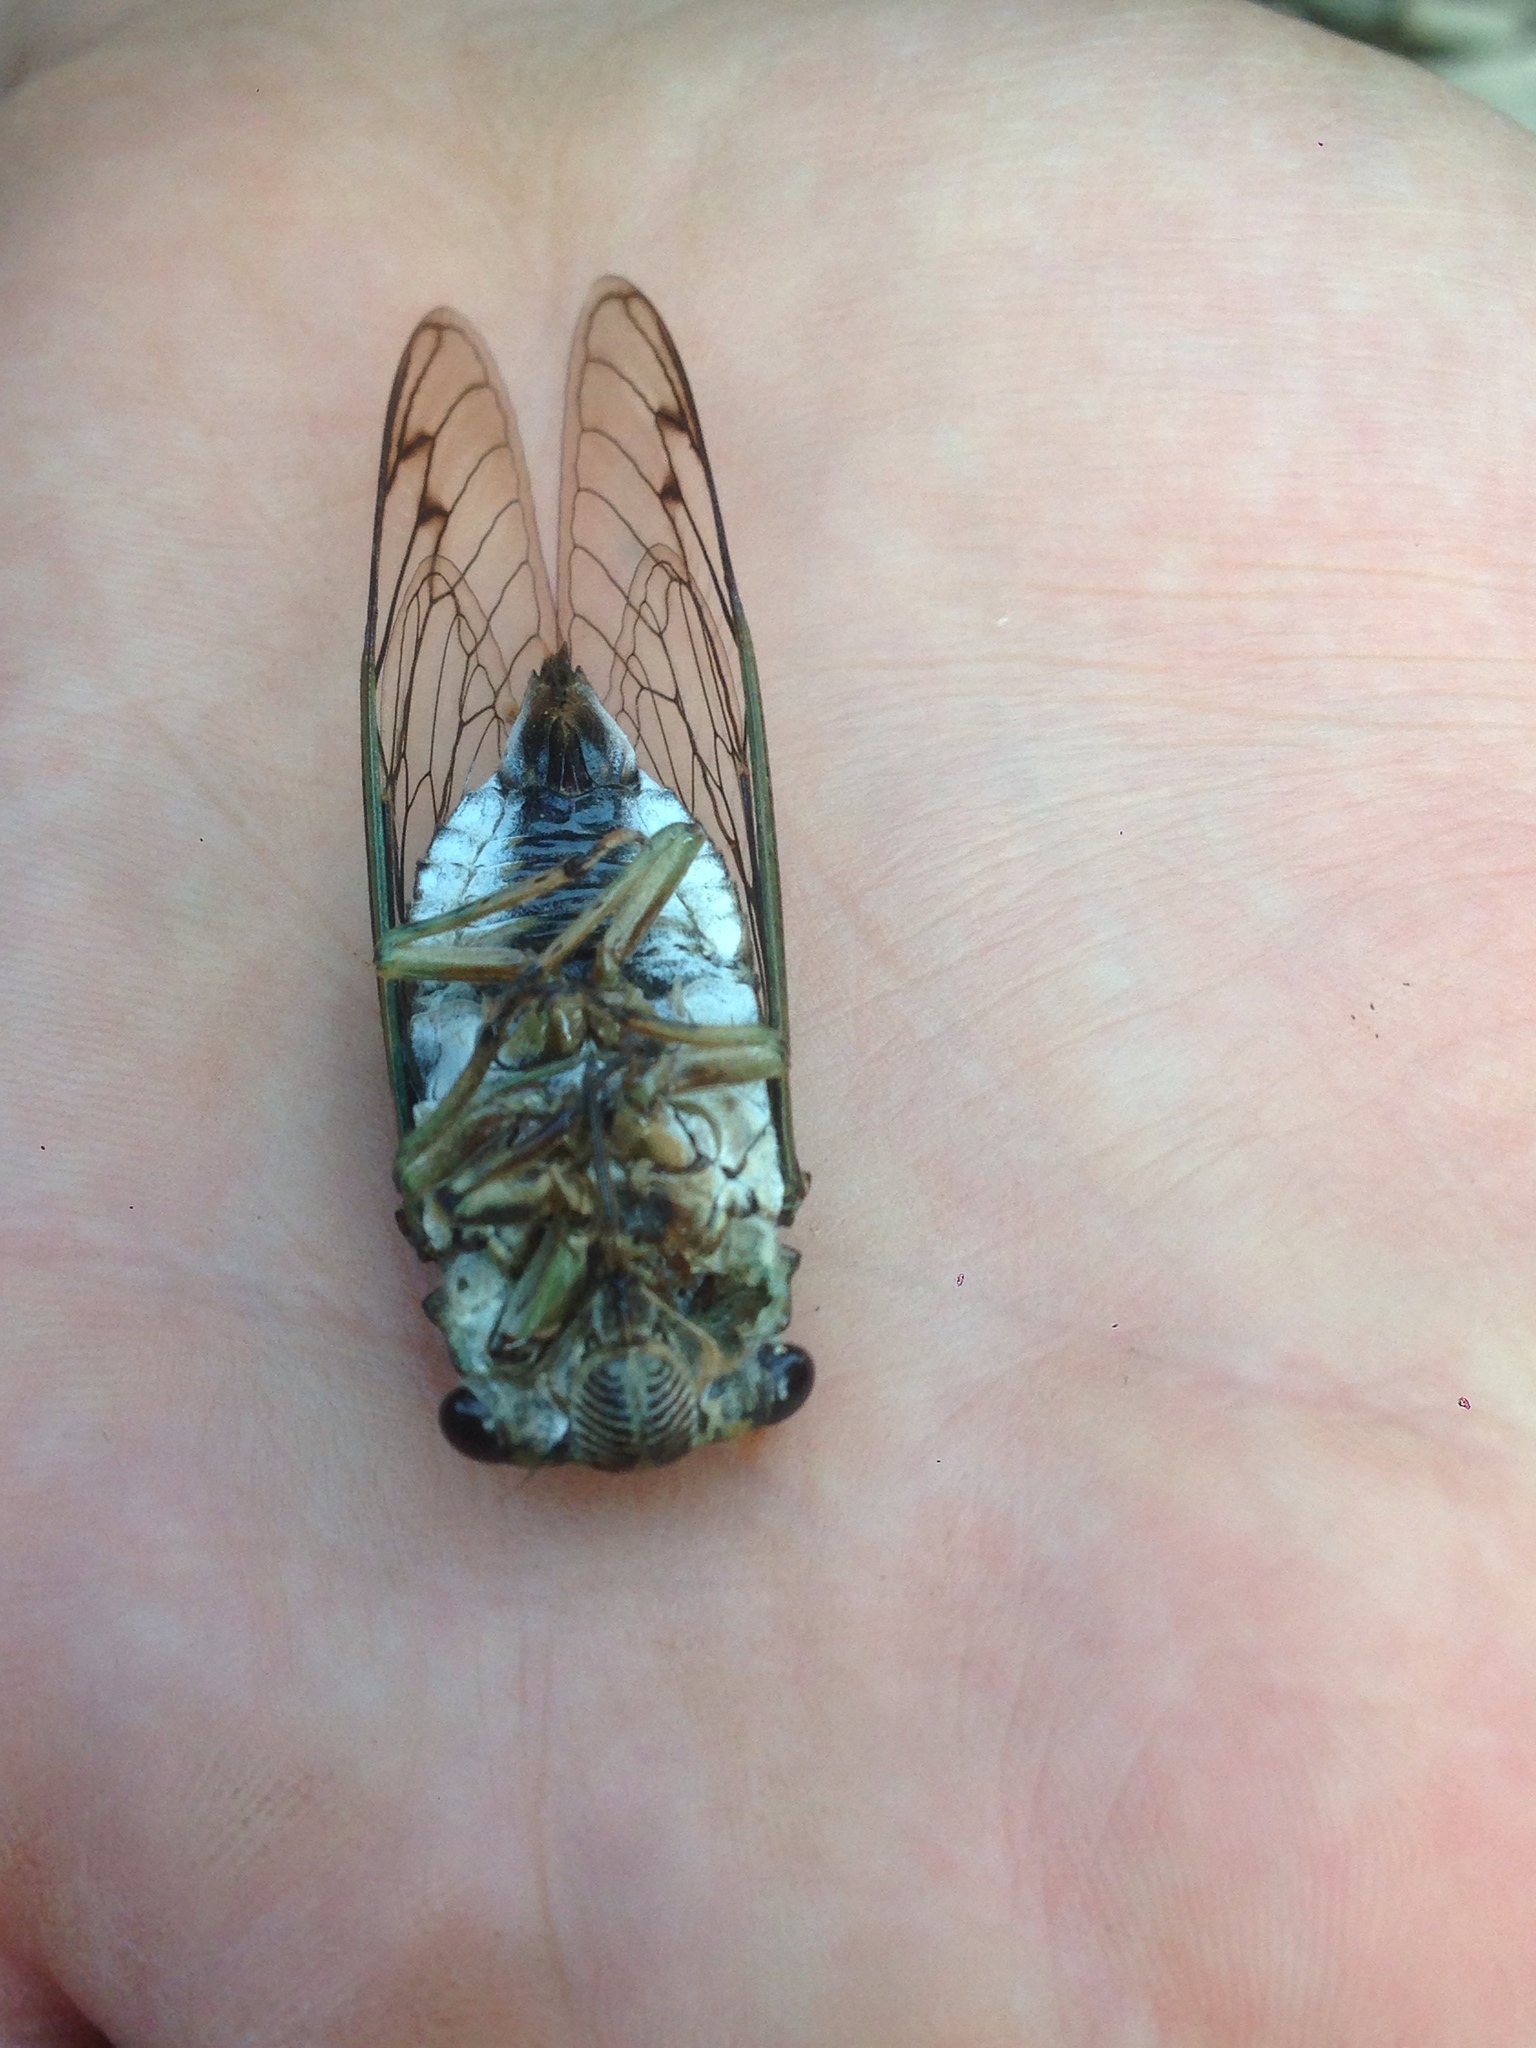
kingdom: Animalia
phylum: Arthropoda
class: Insecta
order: Hemiptera
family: Cicadidae
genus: Neotibicen
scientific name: Neotibicen robinsonianus
